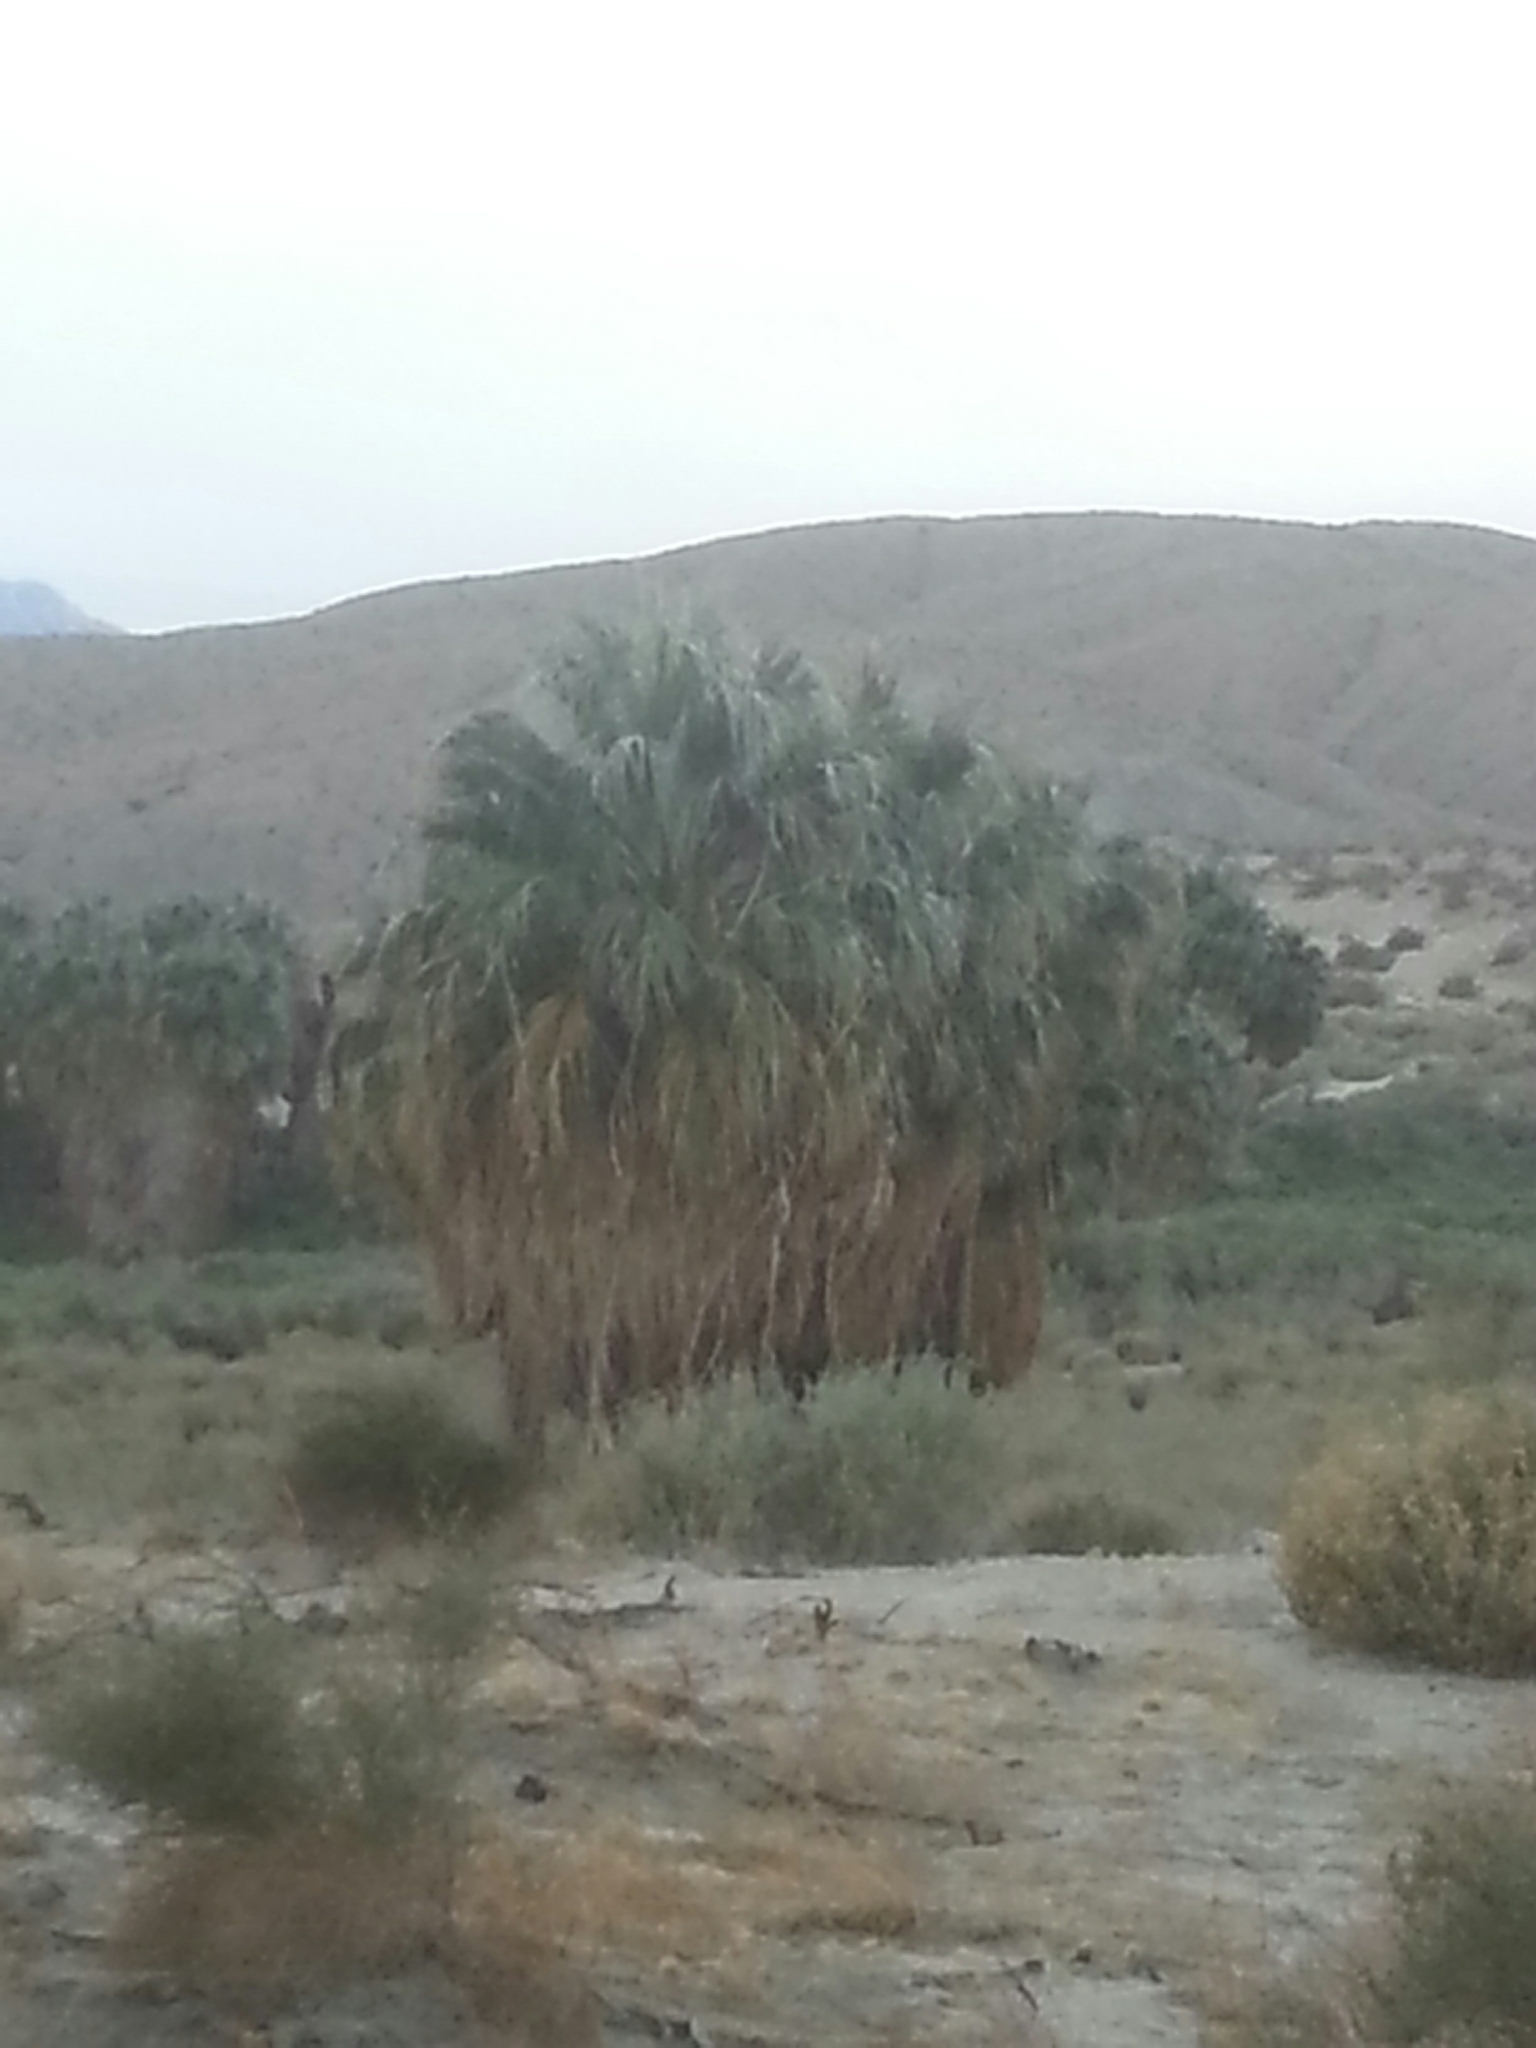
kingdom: Plantae
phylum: Tracheophyta
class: Liliopsida
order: Arecales
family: Arecaceae
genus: Washingtonia
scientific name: Washingtonia filifera
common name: California fan palm
